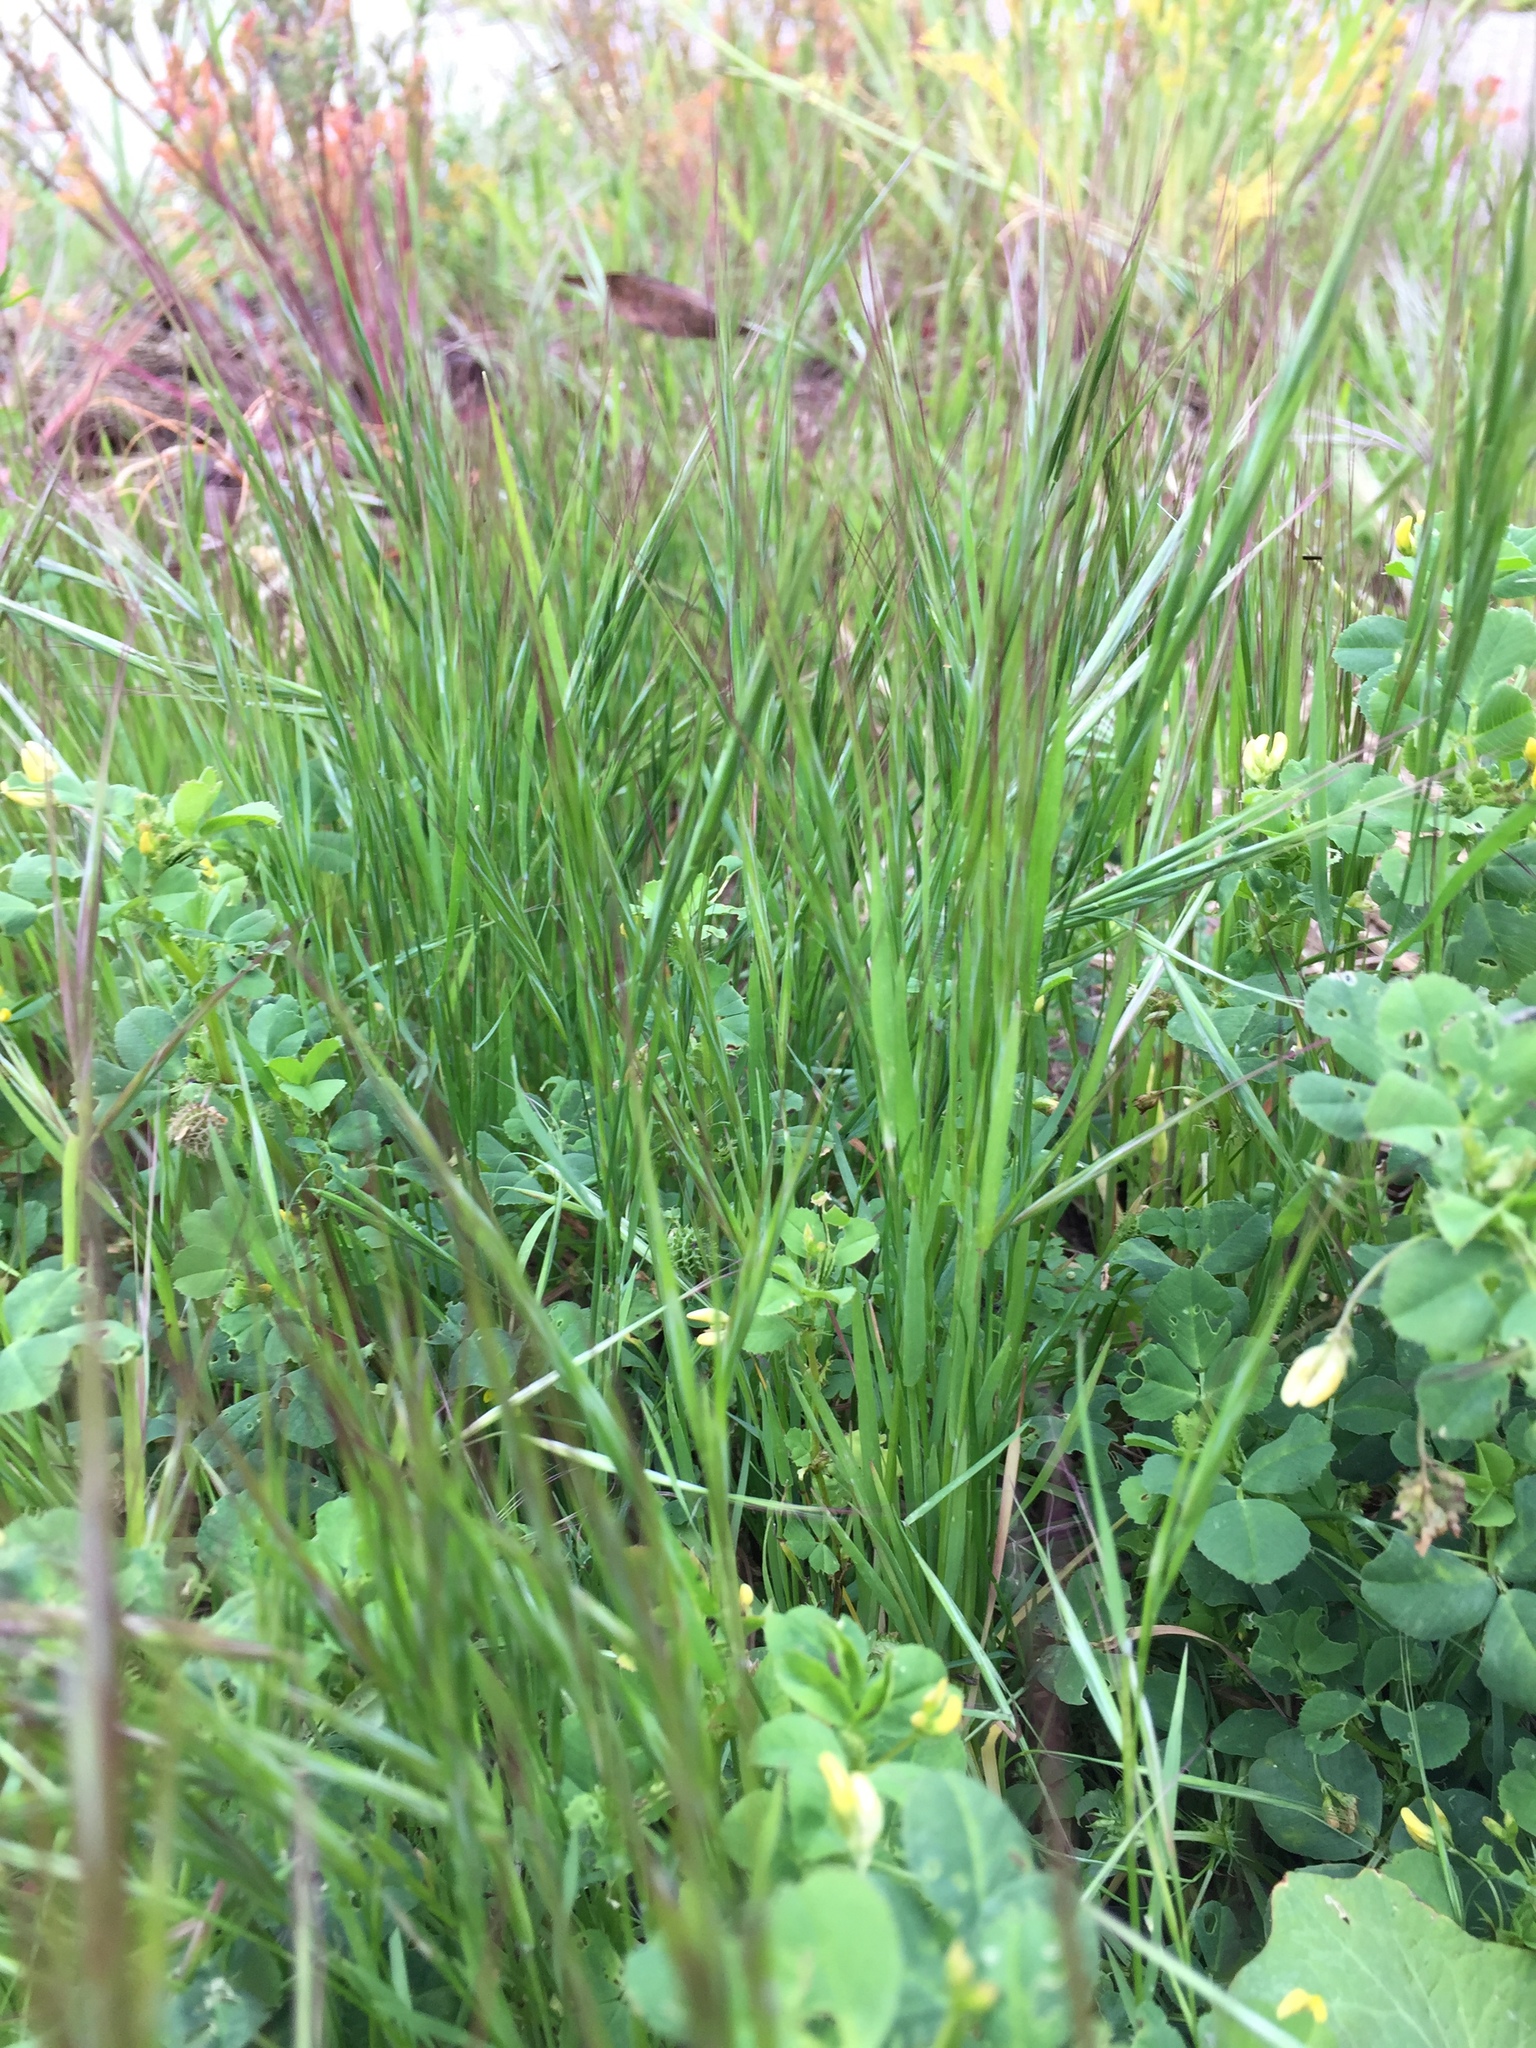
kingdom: Plantae
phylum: Tracheophyta
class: Liliopsida
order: Poales
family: Poaceae
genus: Bromus
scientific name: Bromus diandrus
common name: Ripgut brome
